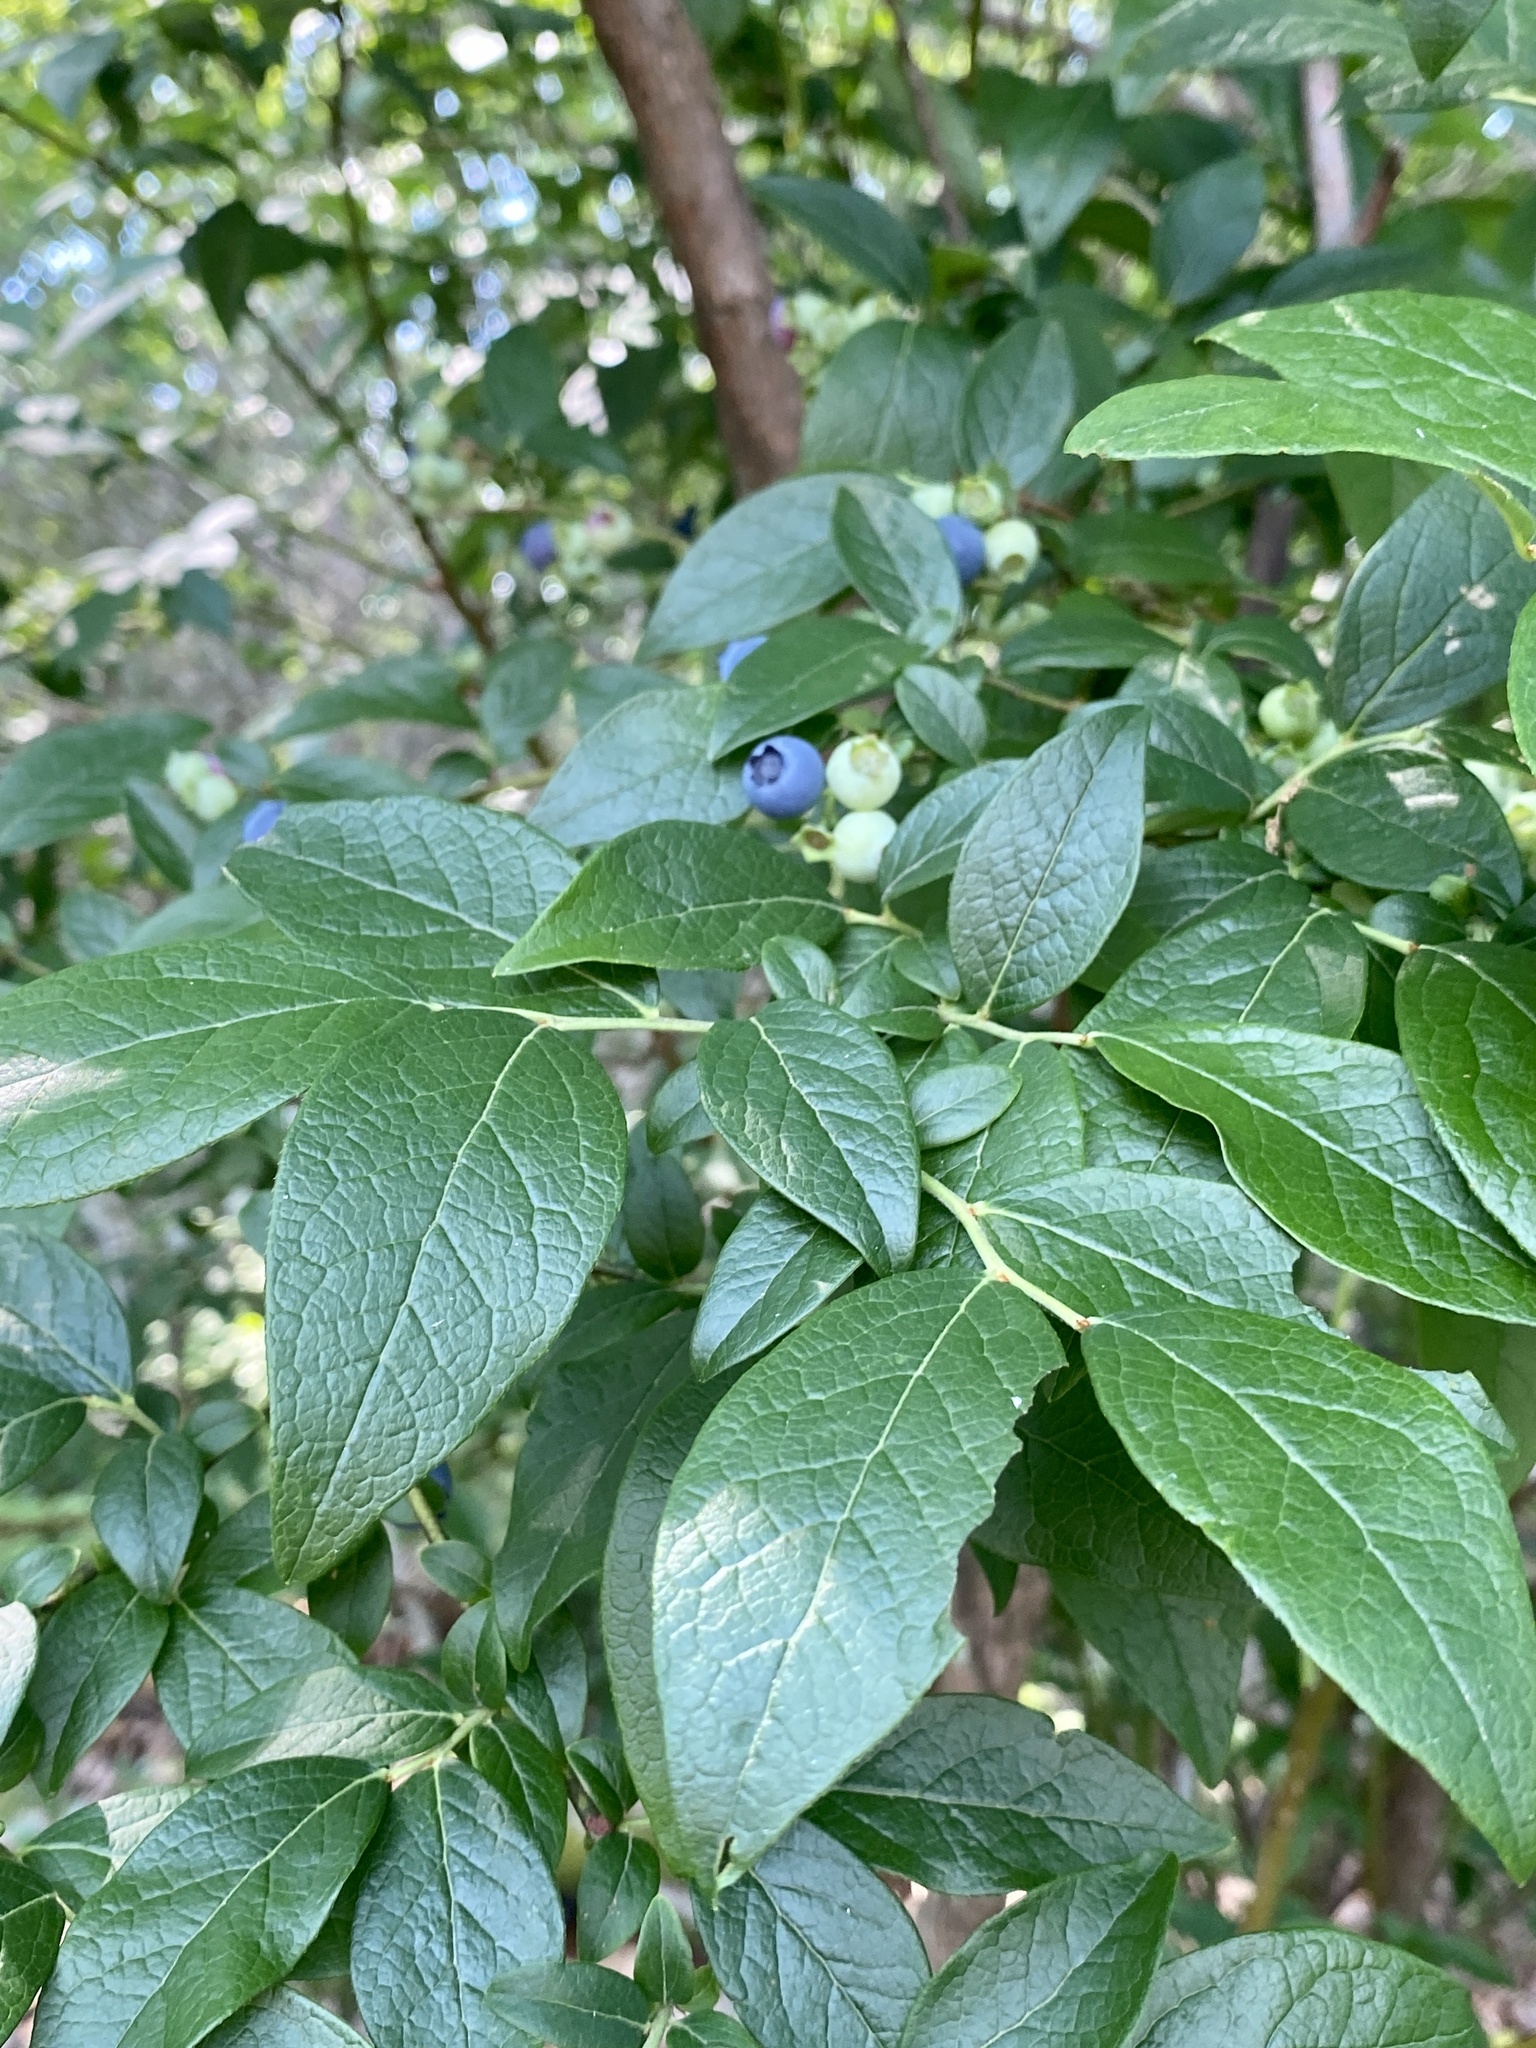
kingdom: Plantae
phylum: Tracheophyta
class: Magnoliopsida
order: Ericales
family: Ericaceae
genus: Vaccinium
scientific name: Vaccinium corymbosum
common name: Blueberry
